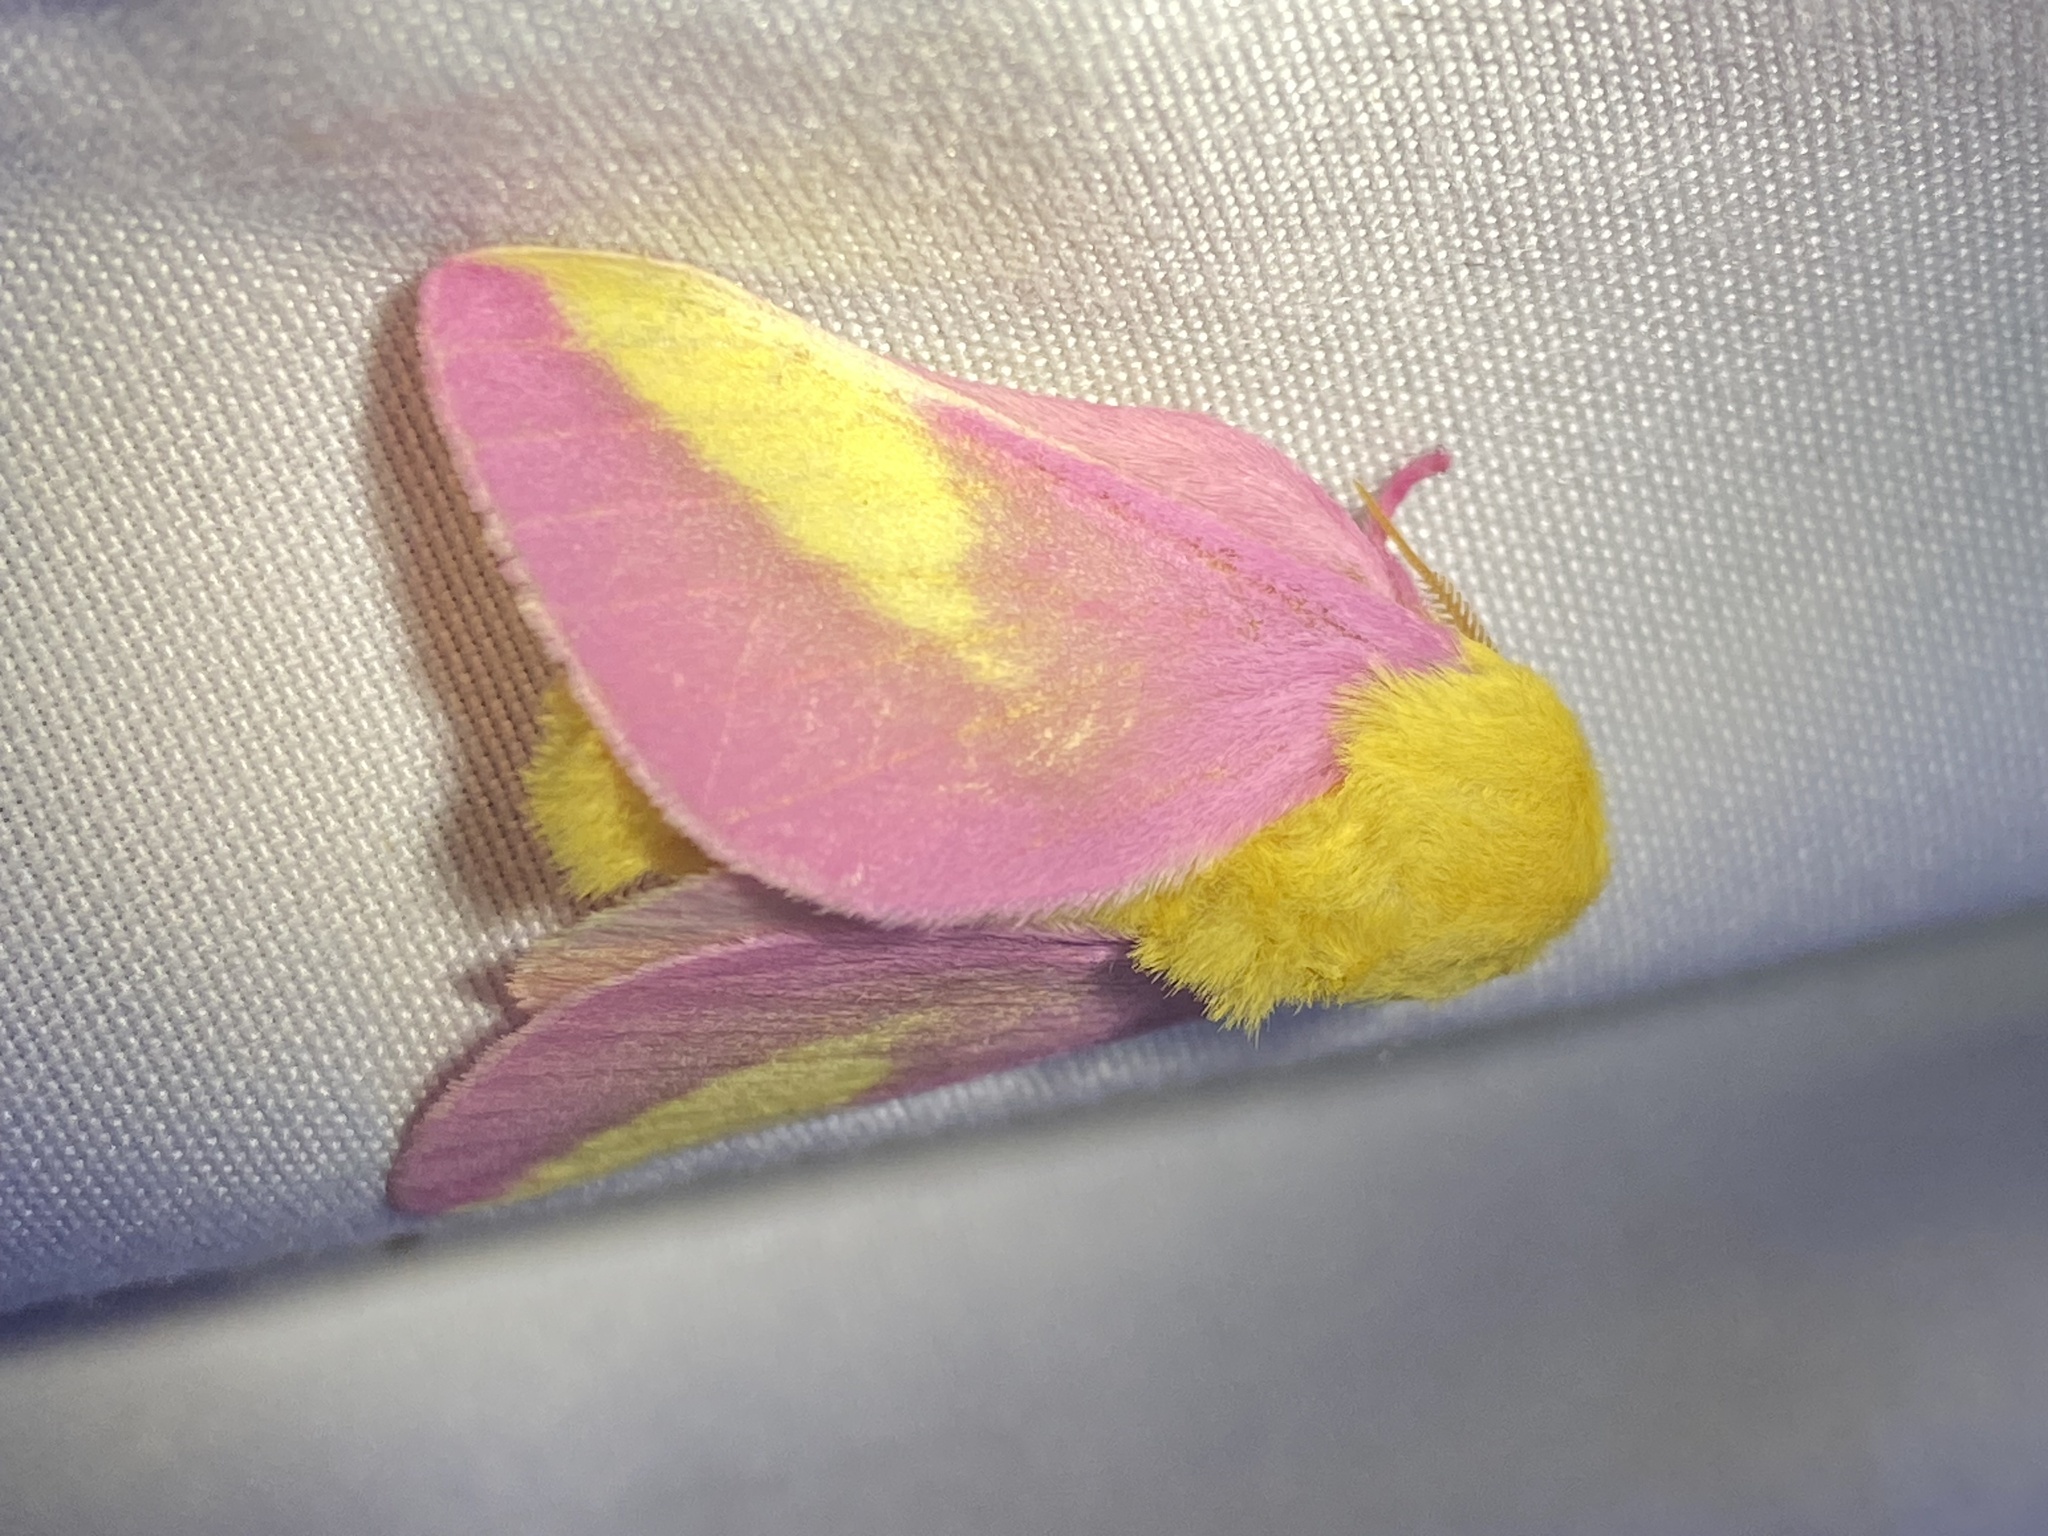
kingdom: Animalia
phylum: Arthropoda
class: Insecta
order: Lepidoptera
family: Saturniidae
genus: Dryocampa
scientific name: Dryocampa rubicunda
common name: Rosy maple moth
